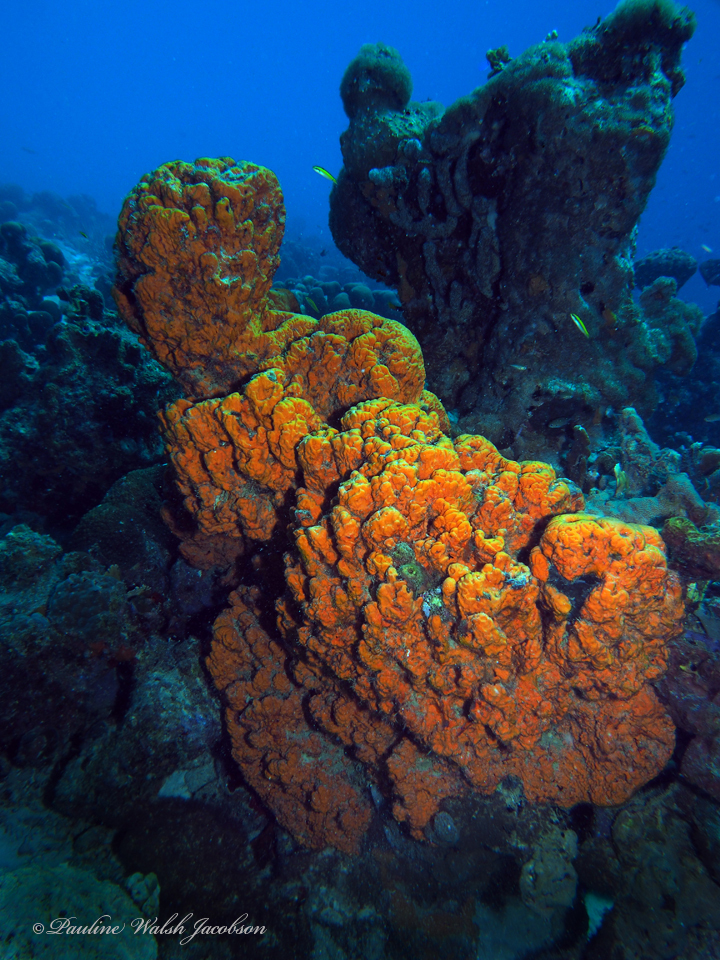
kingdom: Animalia
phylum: Porifera
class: Demospongiae
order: Agelasida
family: Agelasidae
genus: Agelas
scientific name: Agelas clathrodes
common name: Orange elephant ear sponge
